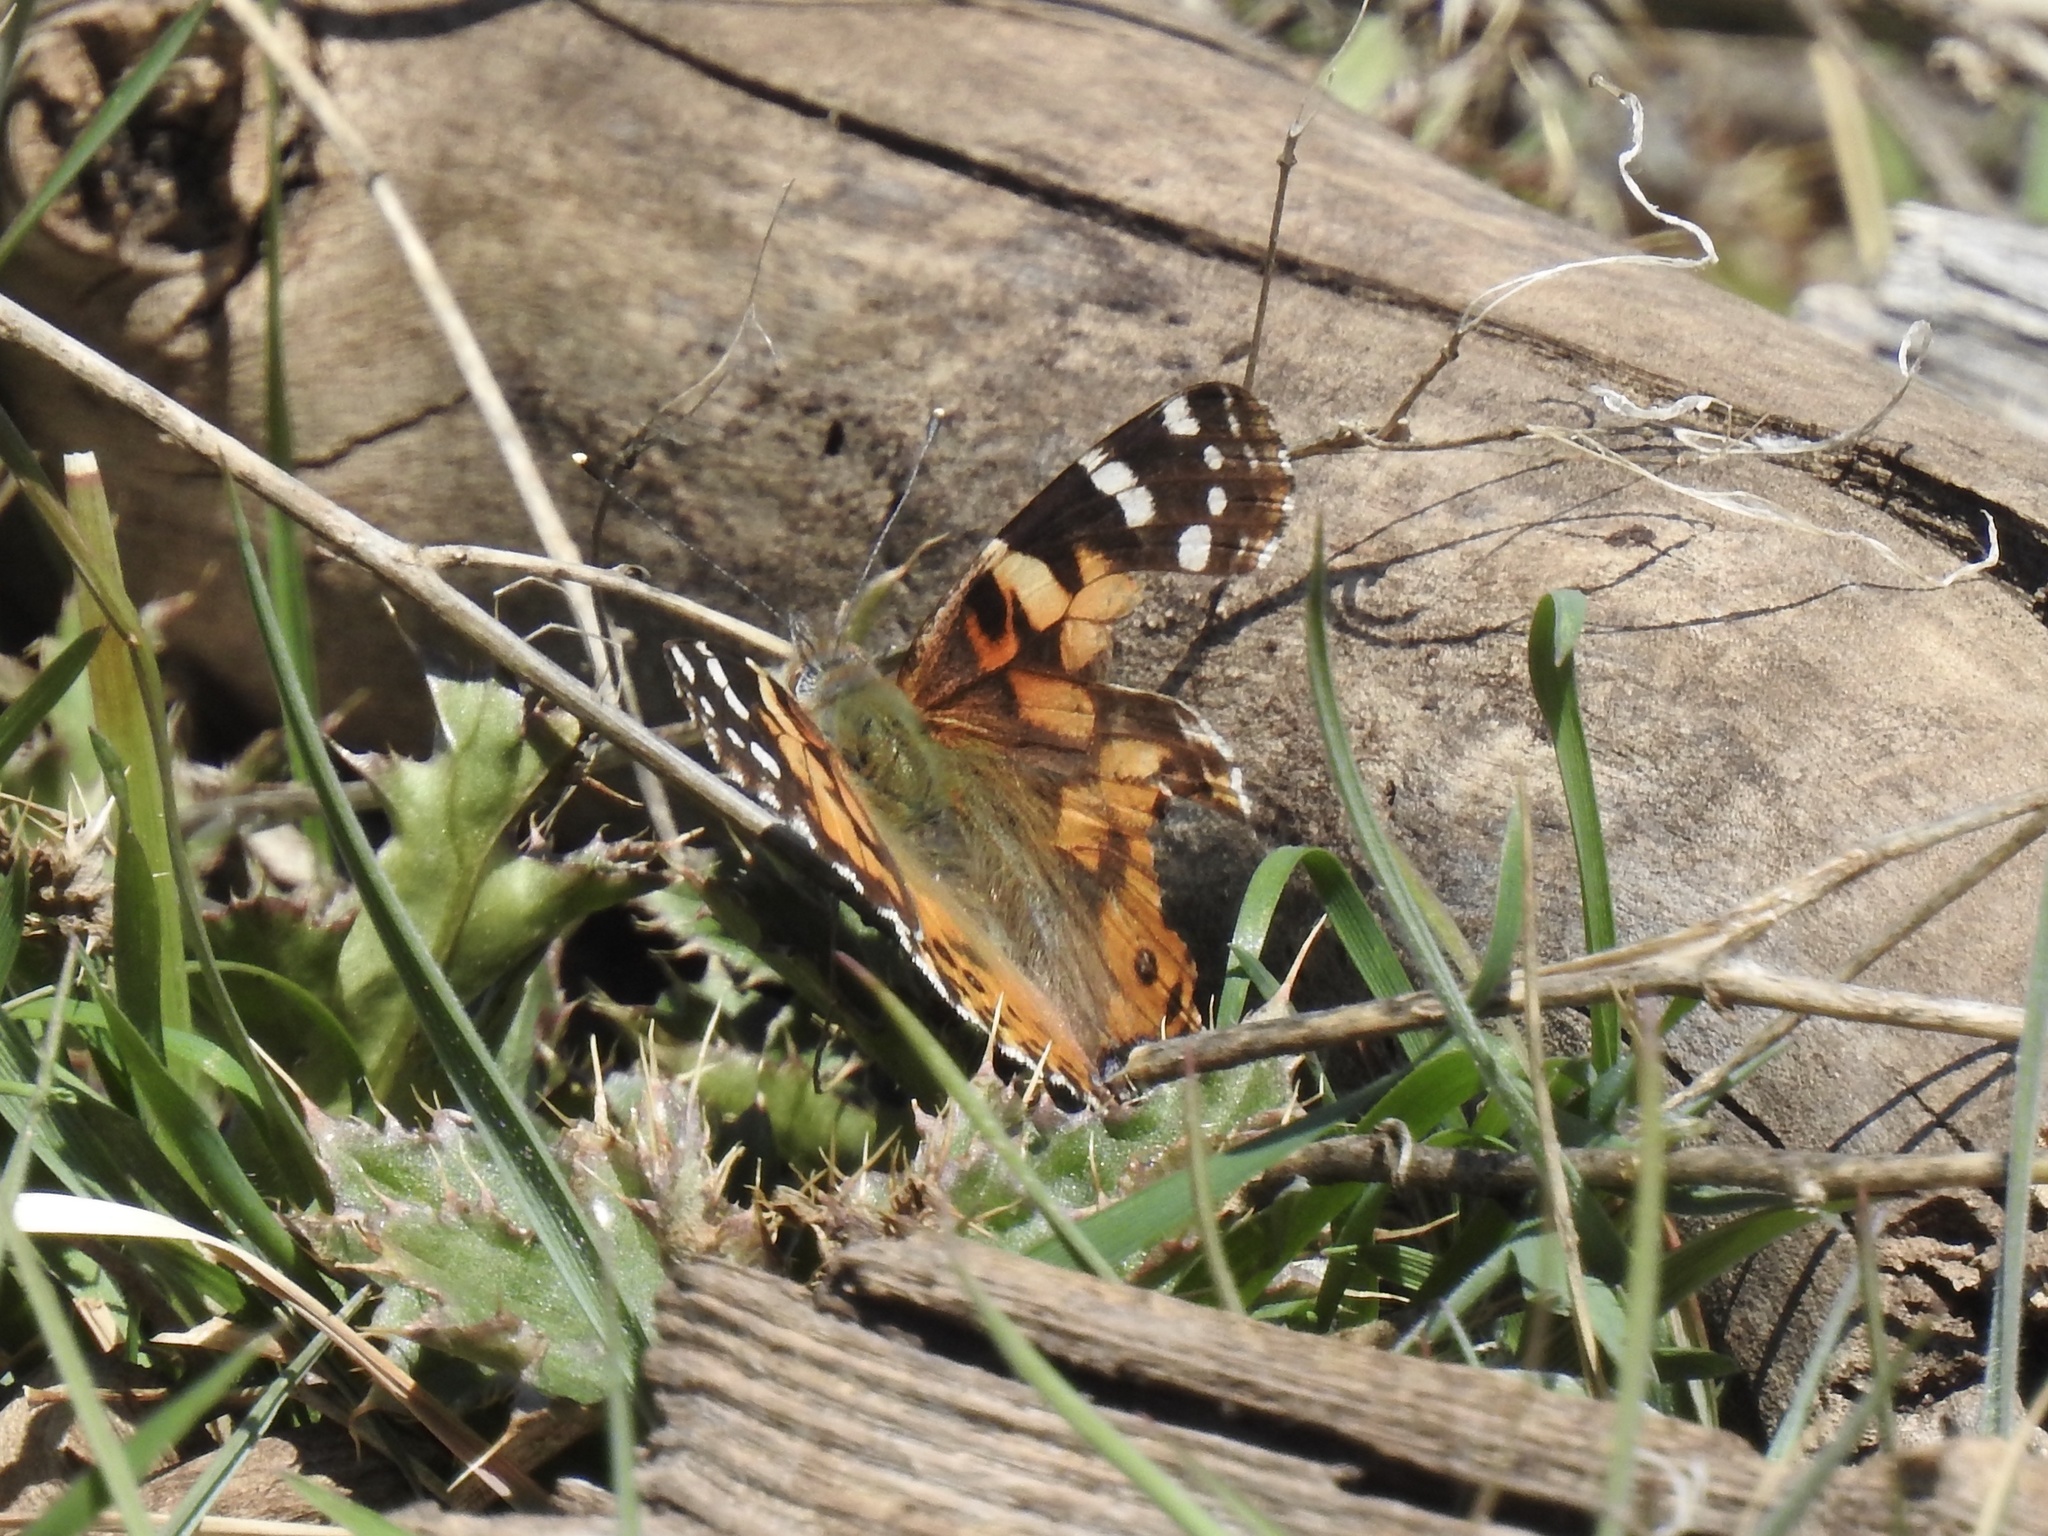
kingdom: Animalia
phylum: Arthropoda
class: Insecta
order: Lepidoptera
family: Nymphalidae
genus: Vanessa
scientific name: Vanessa cardui
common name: Painted lady
